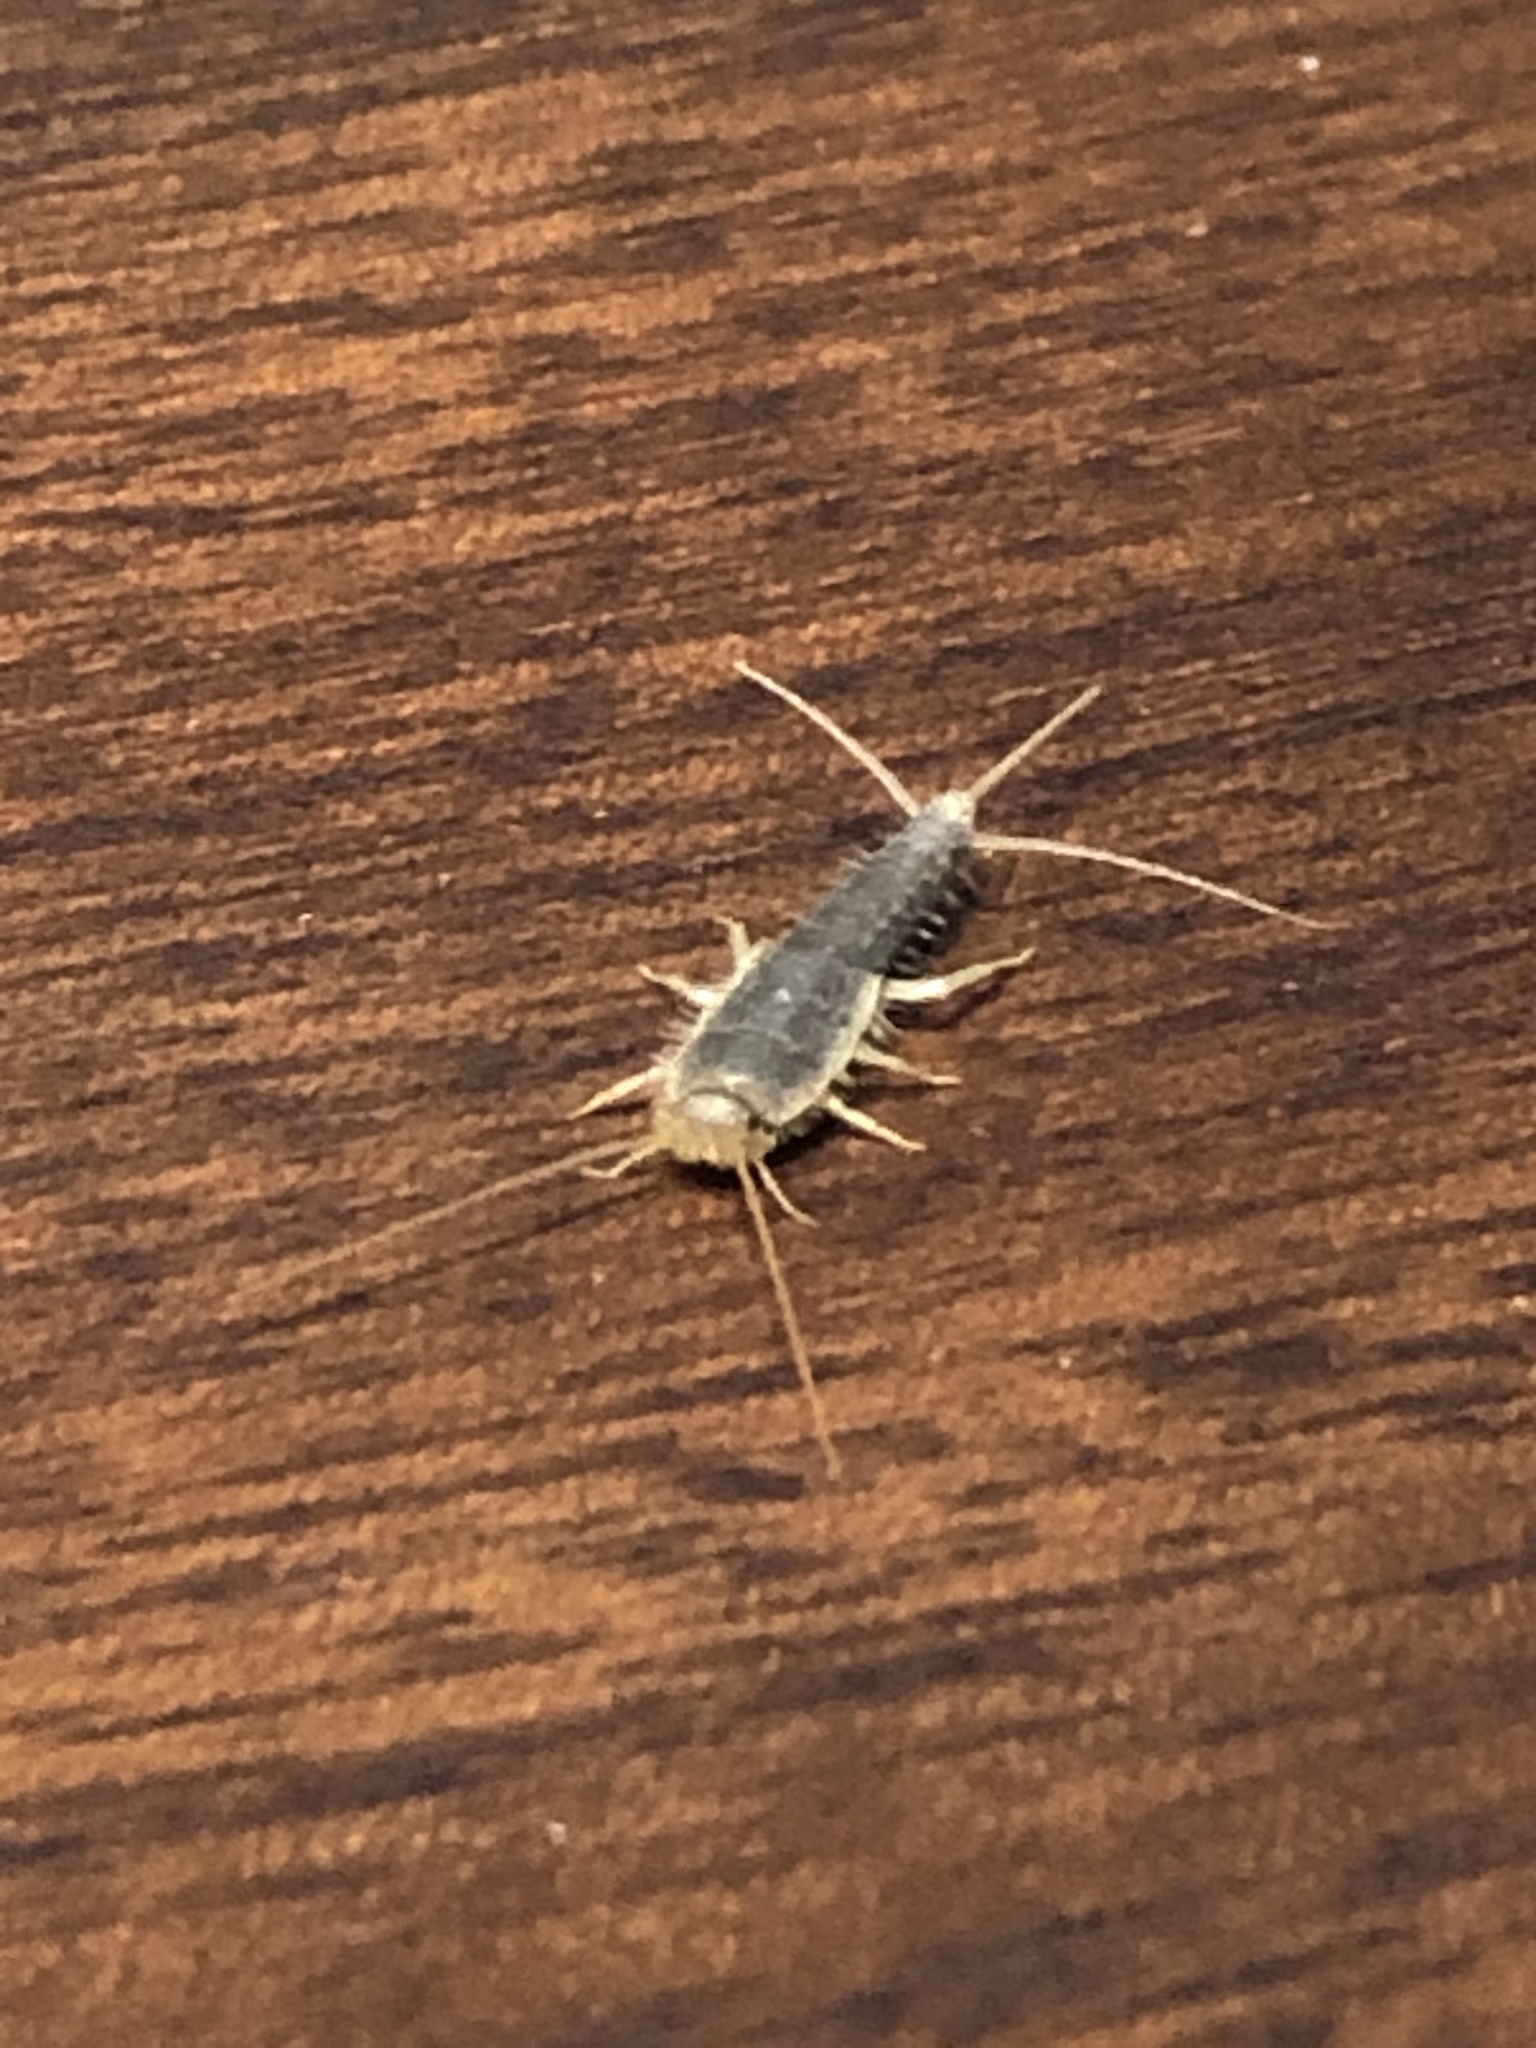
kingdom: Animalia
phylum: Arthropoda
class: Insecta
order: Zygentoma
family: Lepismatidae
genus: Ctenolepisma
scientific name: Ctenolepisma longicaudatum
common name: Silverfish
